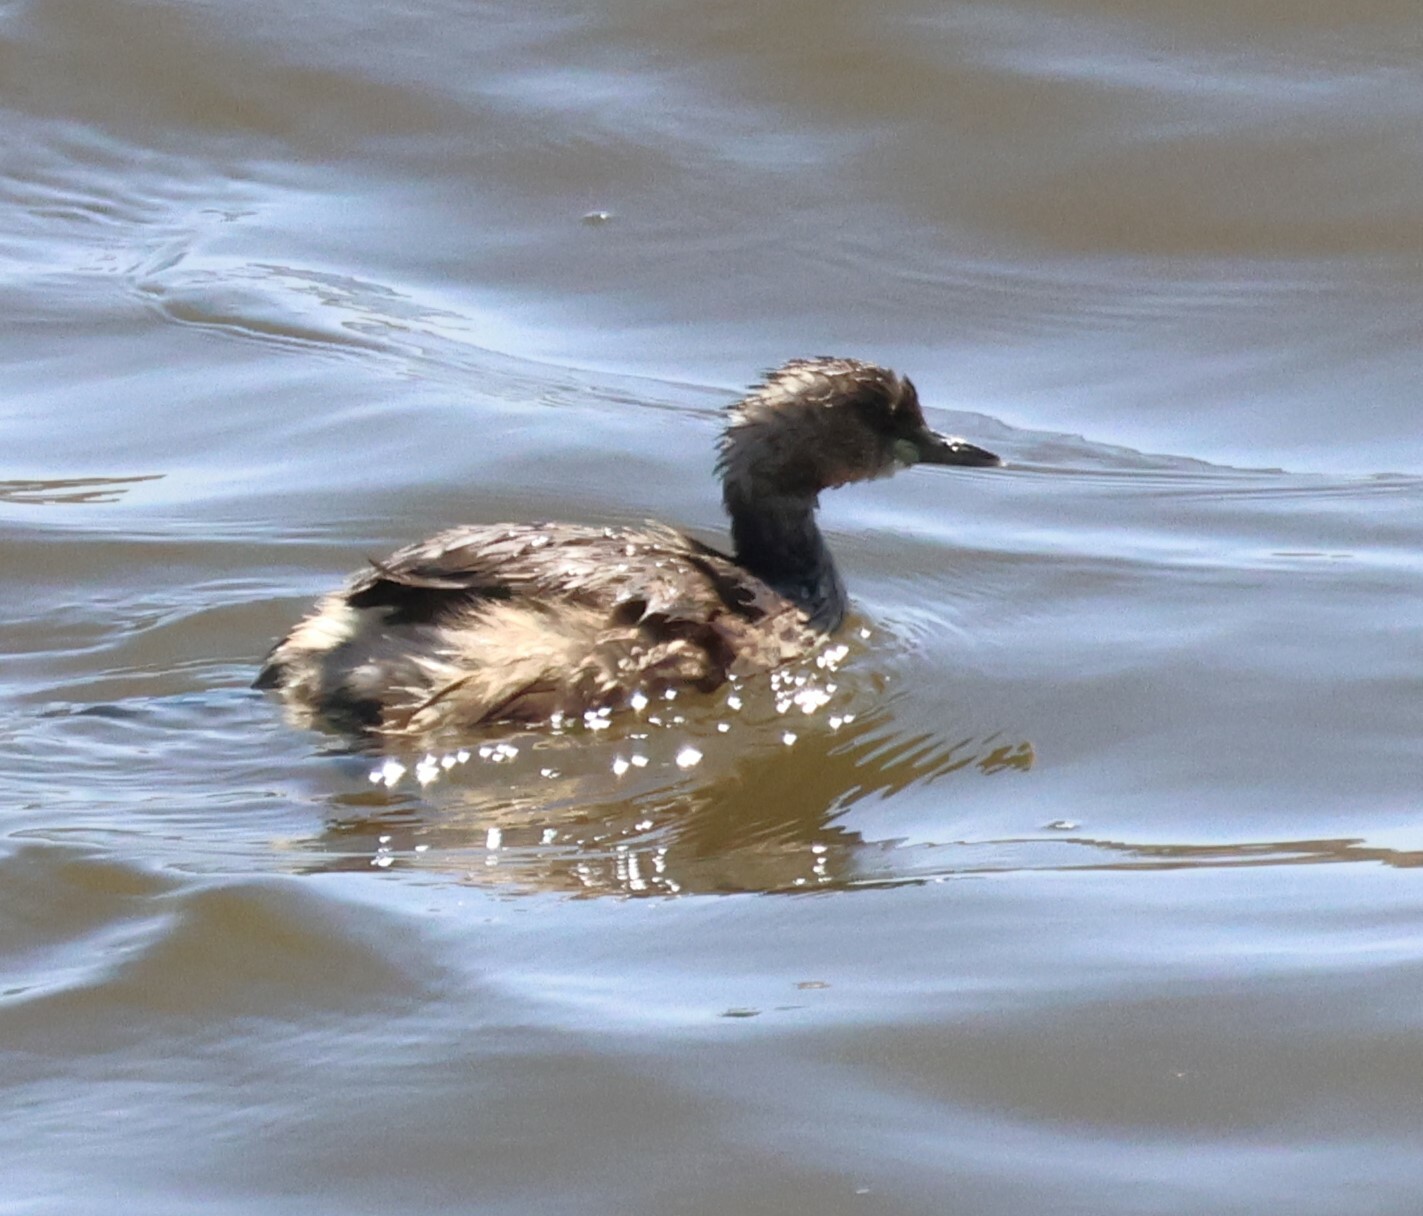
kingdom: Animalia
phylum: Chordata
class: Aves
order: Podicipediformes
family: Podicipedidae
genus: Tachybaptus
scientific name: Tachybaptus ruficollis
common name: Little grebe
